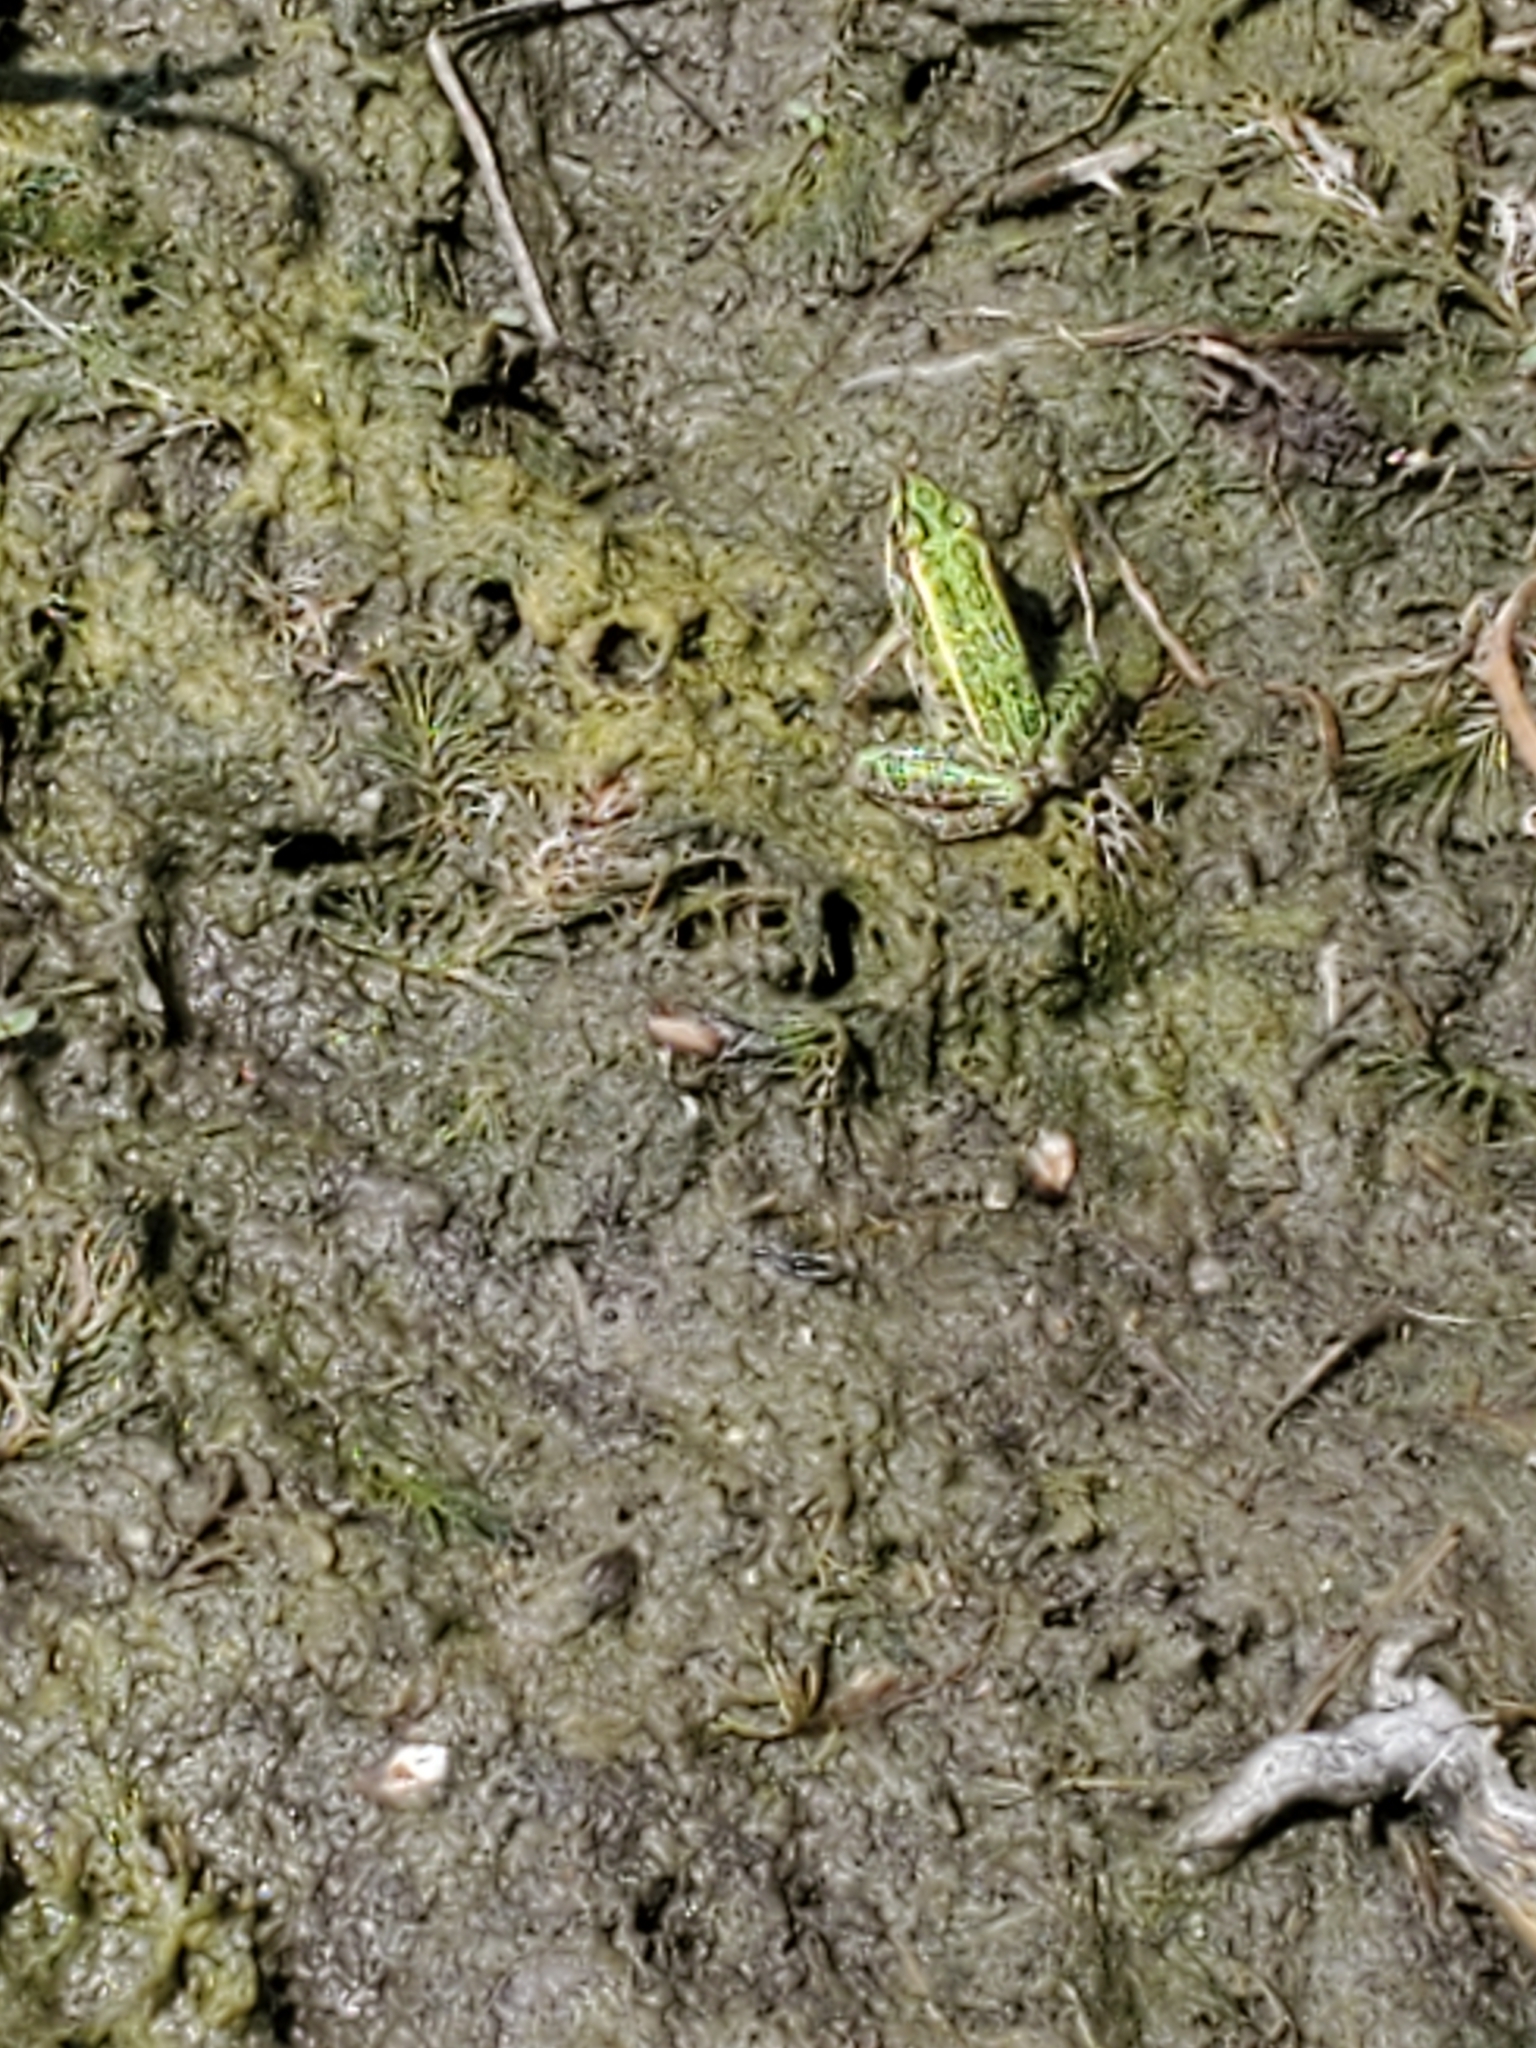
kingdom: Animalia
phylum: Chordata
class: Amphibia
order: Anura
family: Ranidae
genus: Lithobates
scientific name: Lithobates pipiens
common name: Northern leopard frog
